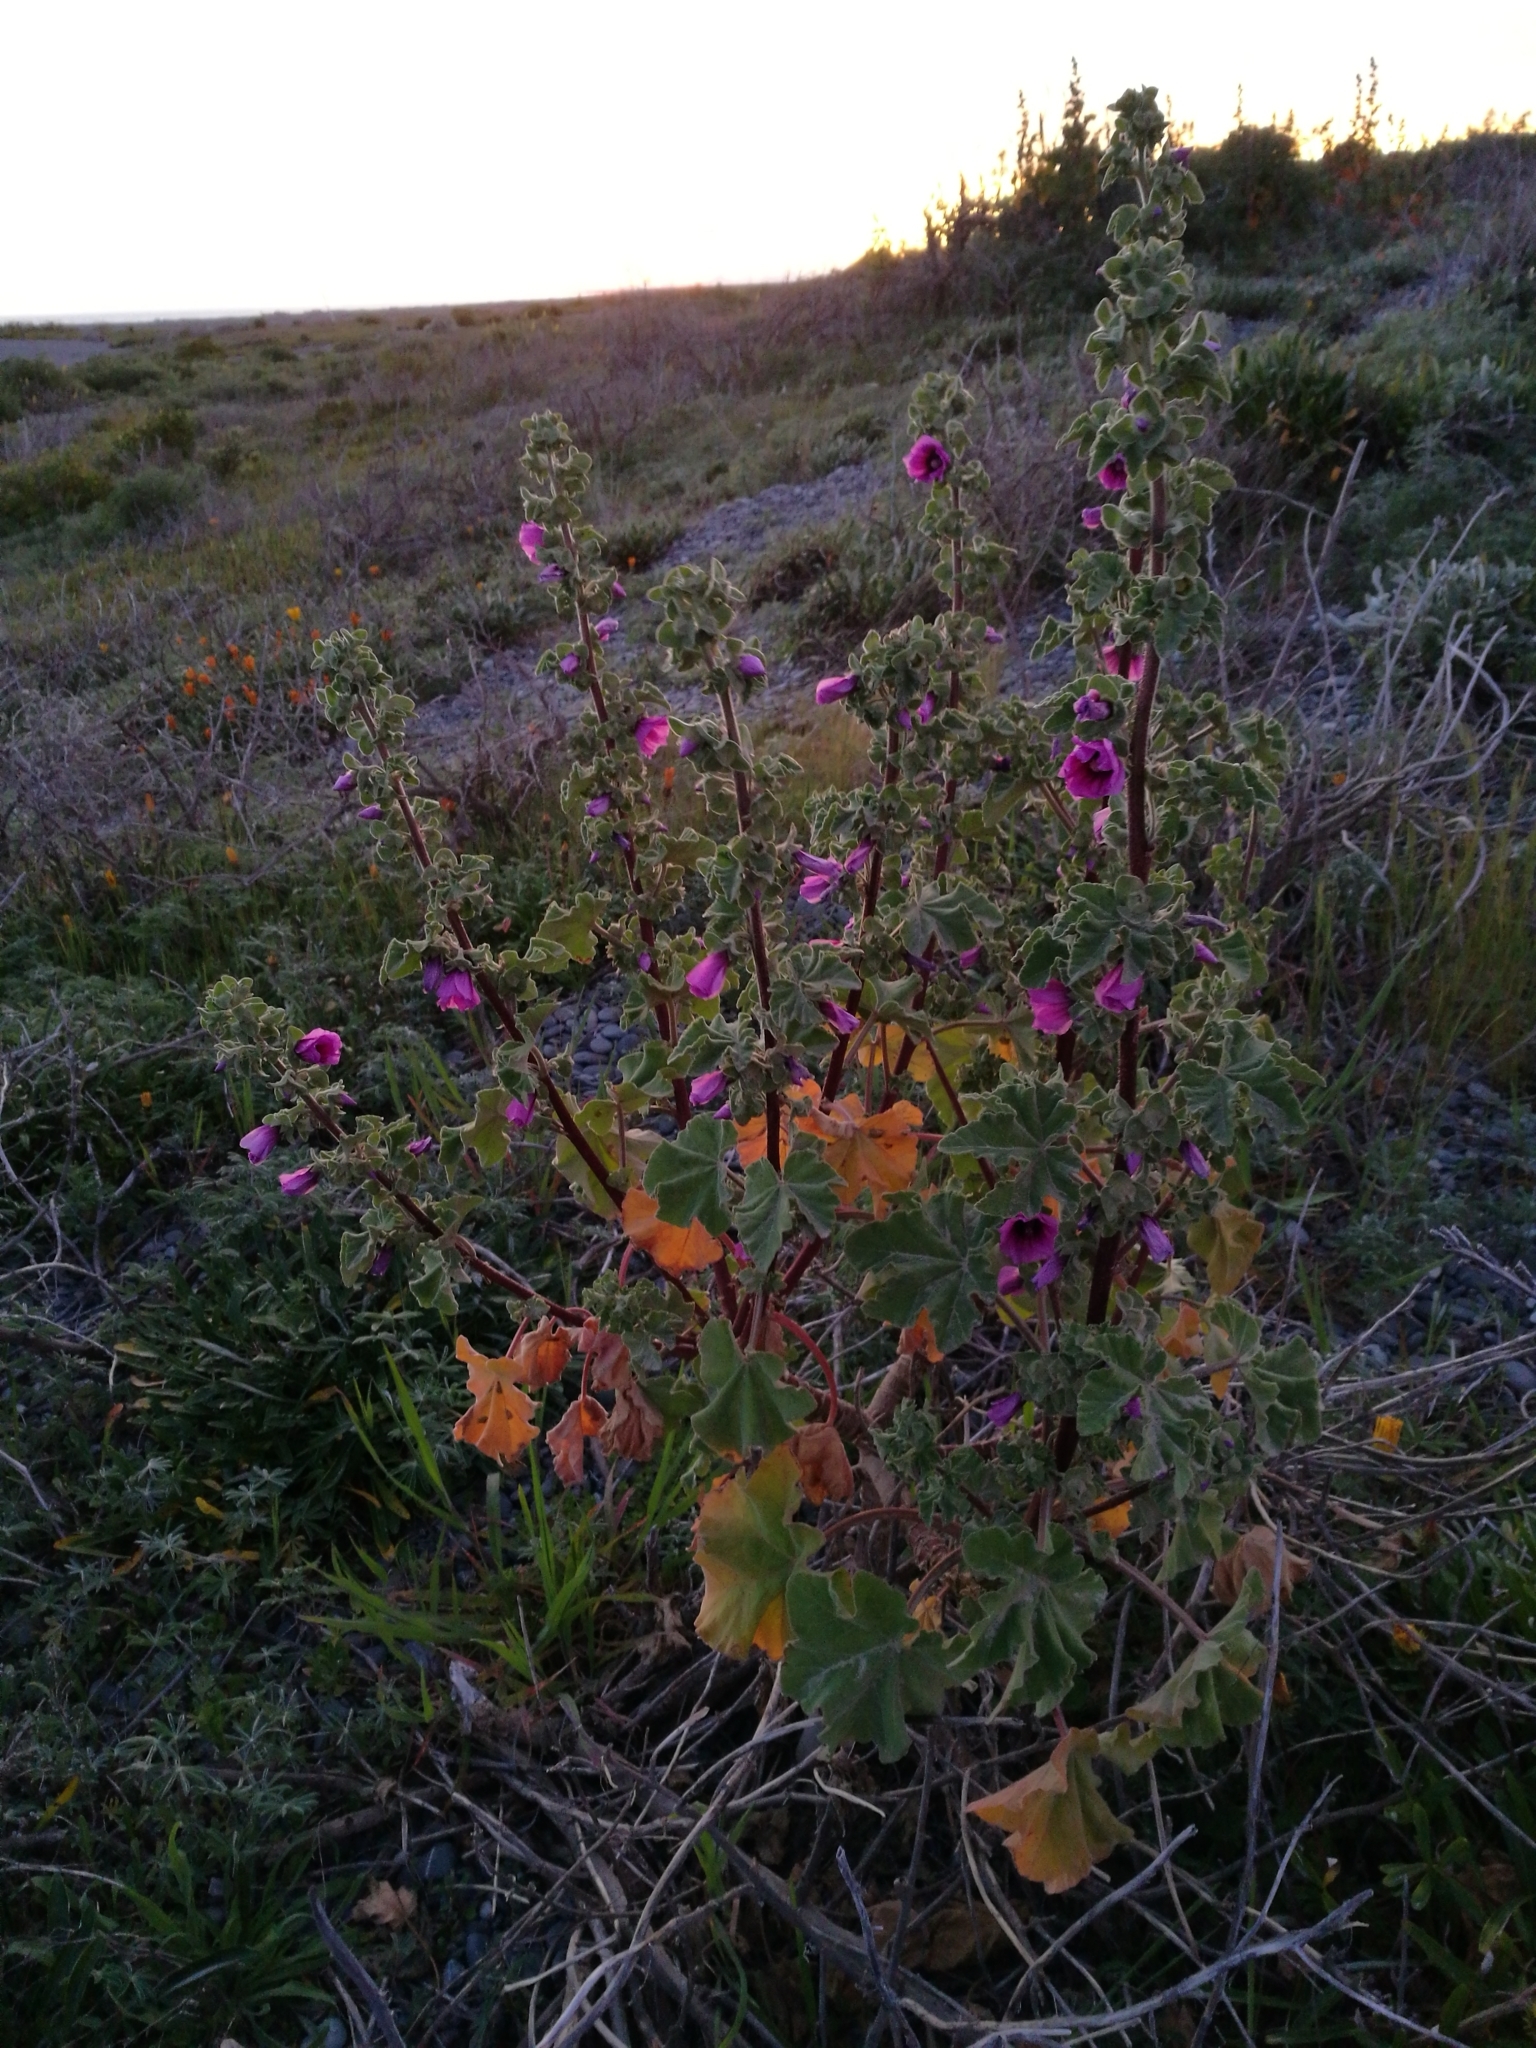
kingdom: Plantae
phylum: Tracheophyta
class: Magnoliopsida
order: Malvales
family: Malvaceae
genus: Malva
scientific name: Malva arborea
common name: Tree mallow
